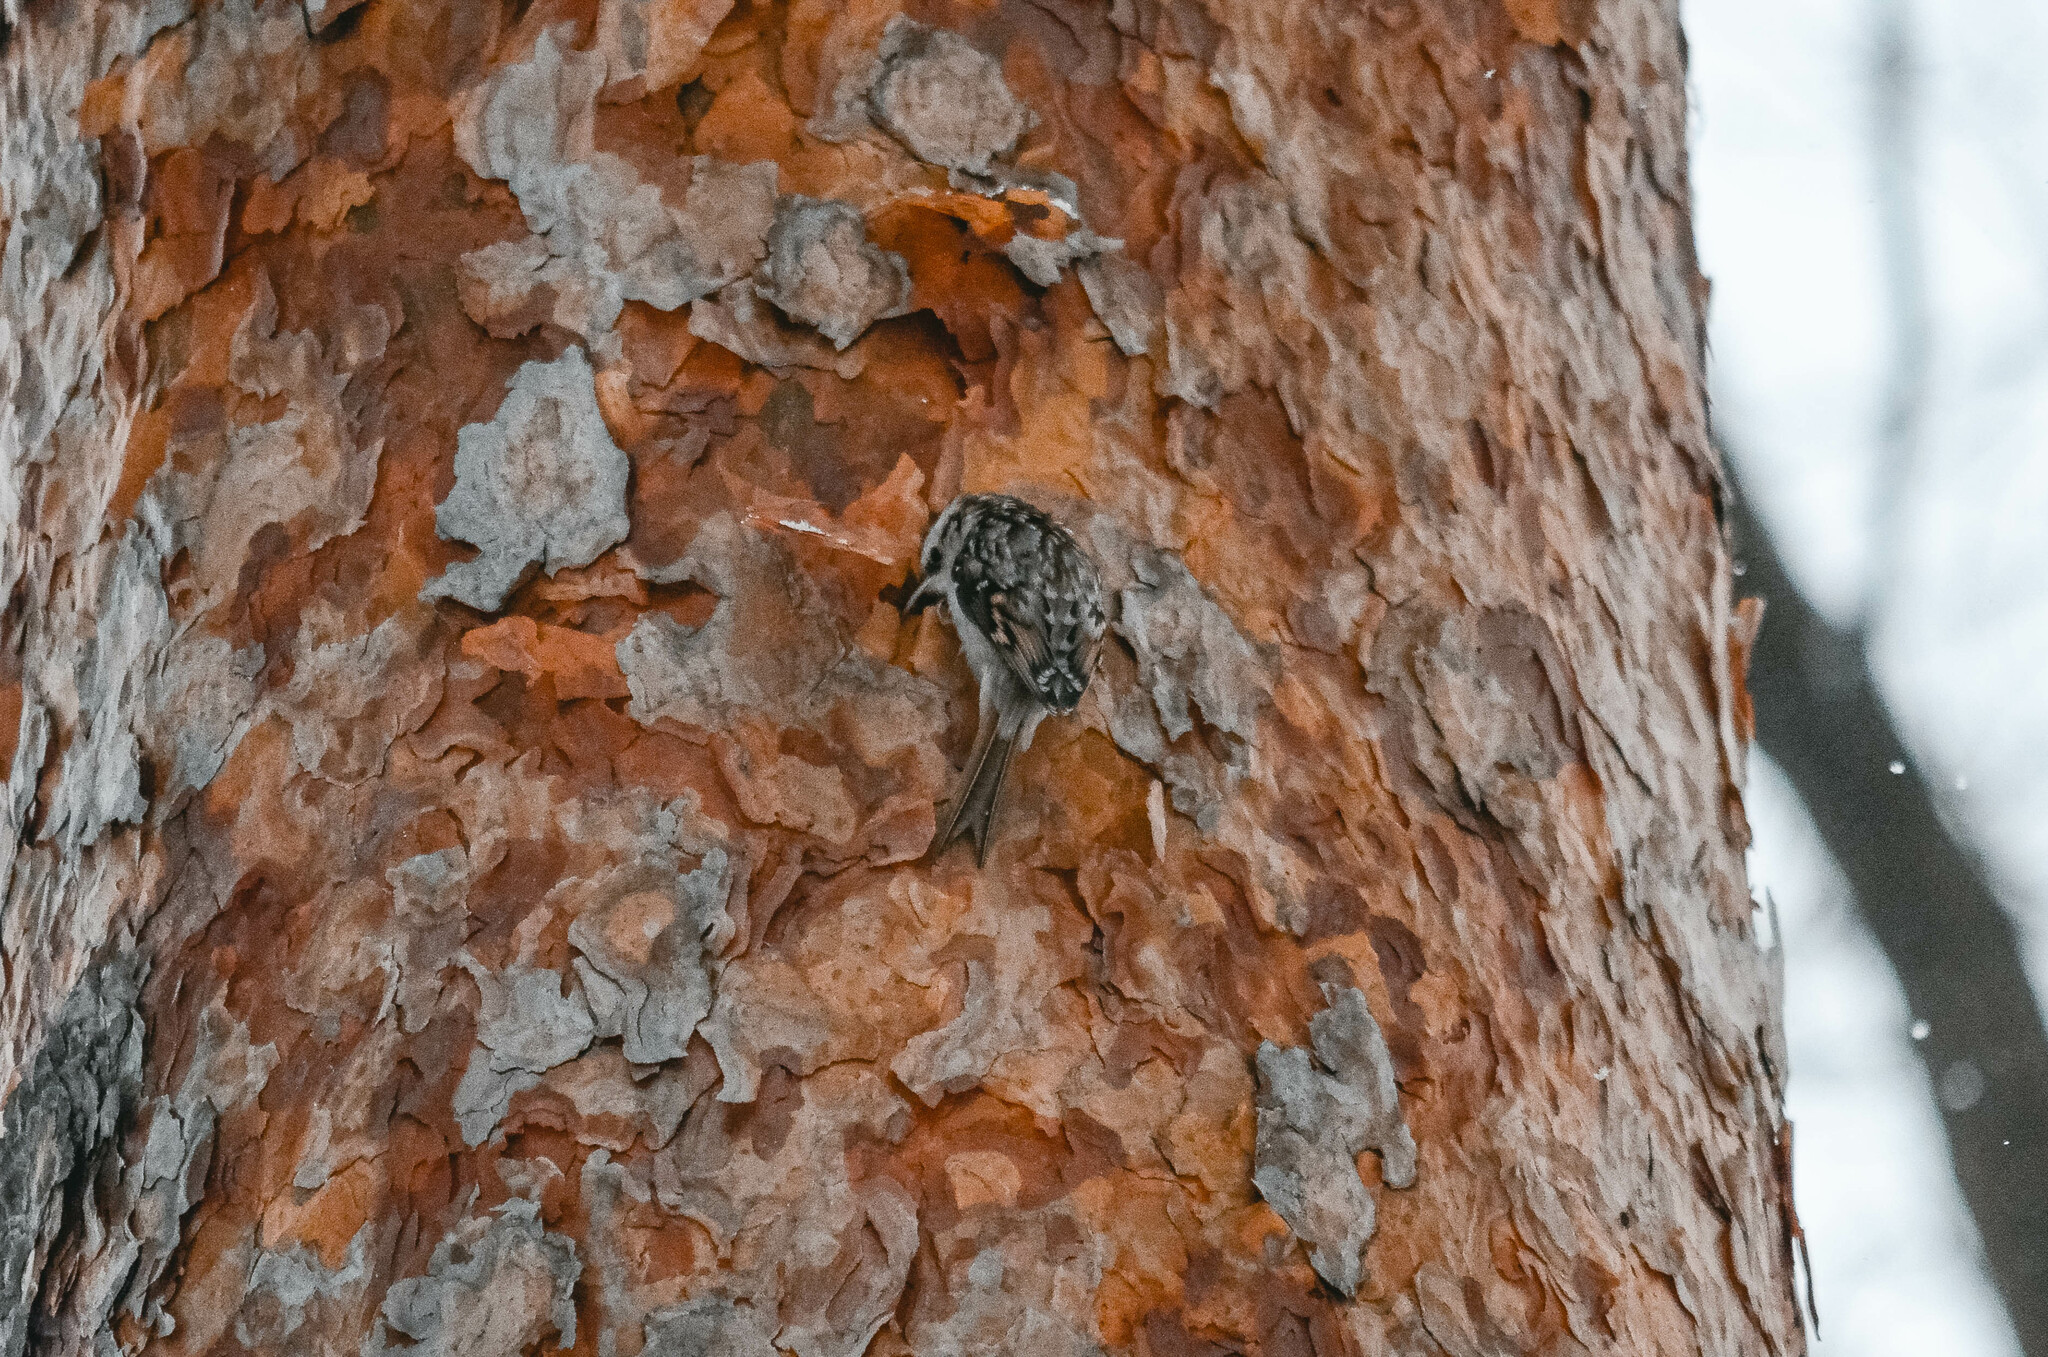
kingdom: Animalia
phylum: Chordata
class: Aves
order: Passeriformes
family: Certhiidae
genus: Certhia
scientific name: Certhia familiaris
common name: Eurasian treecreeper
